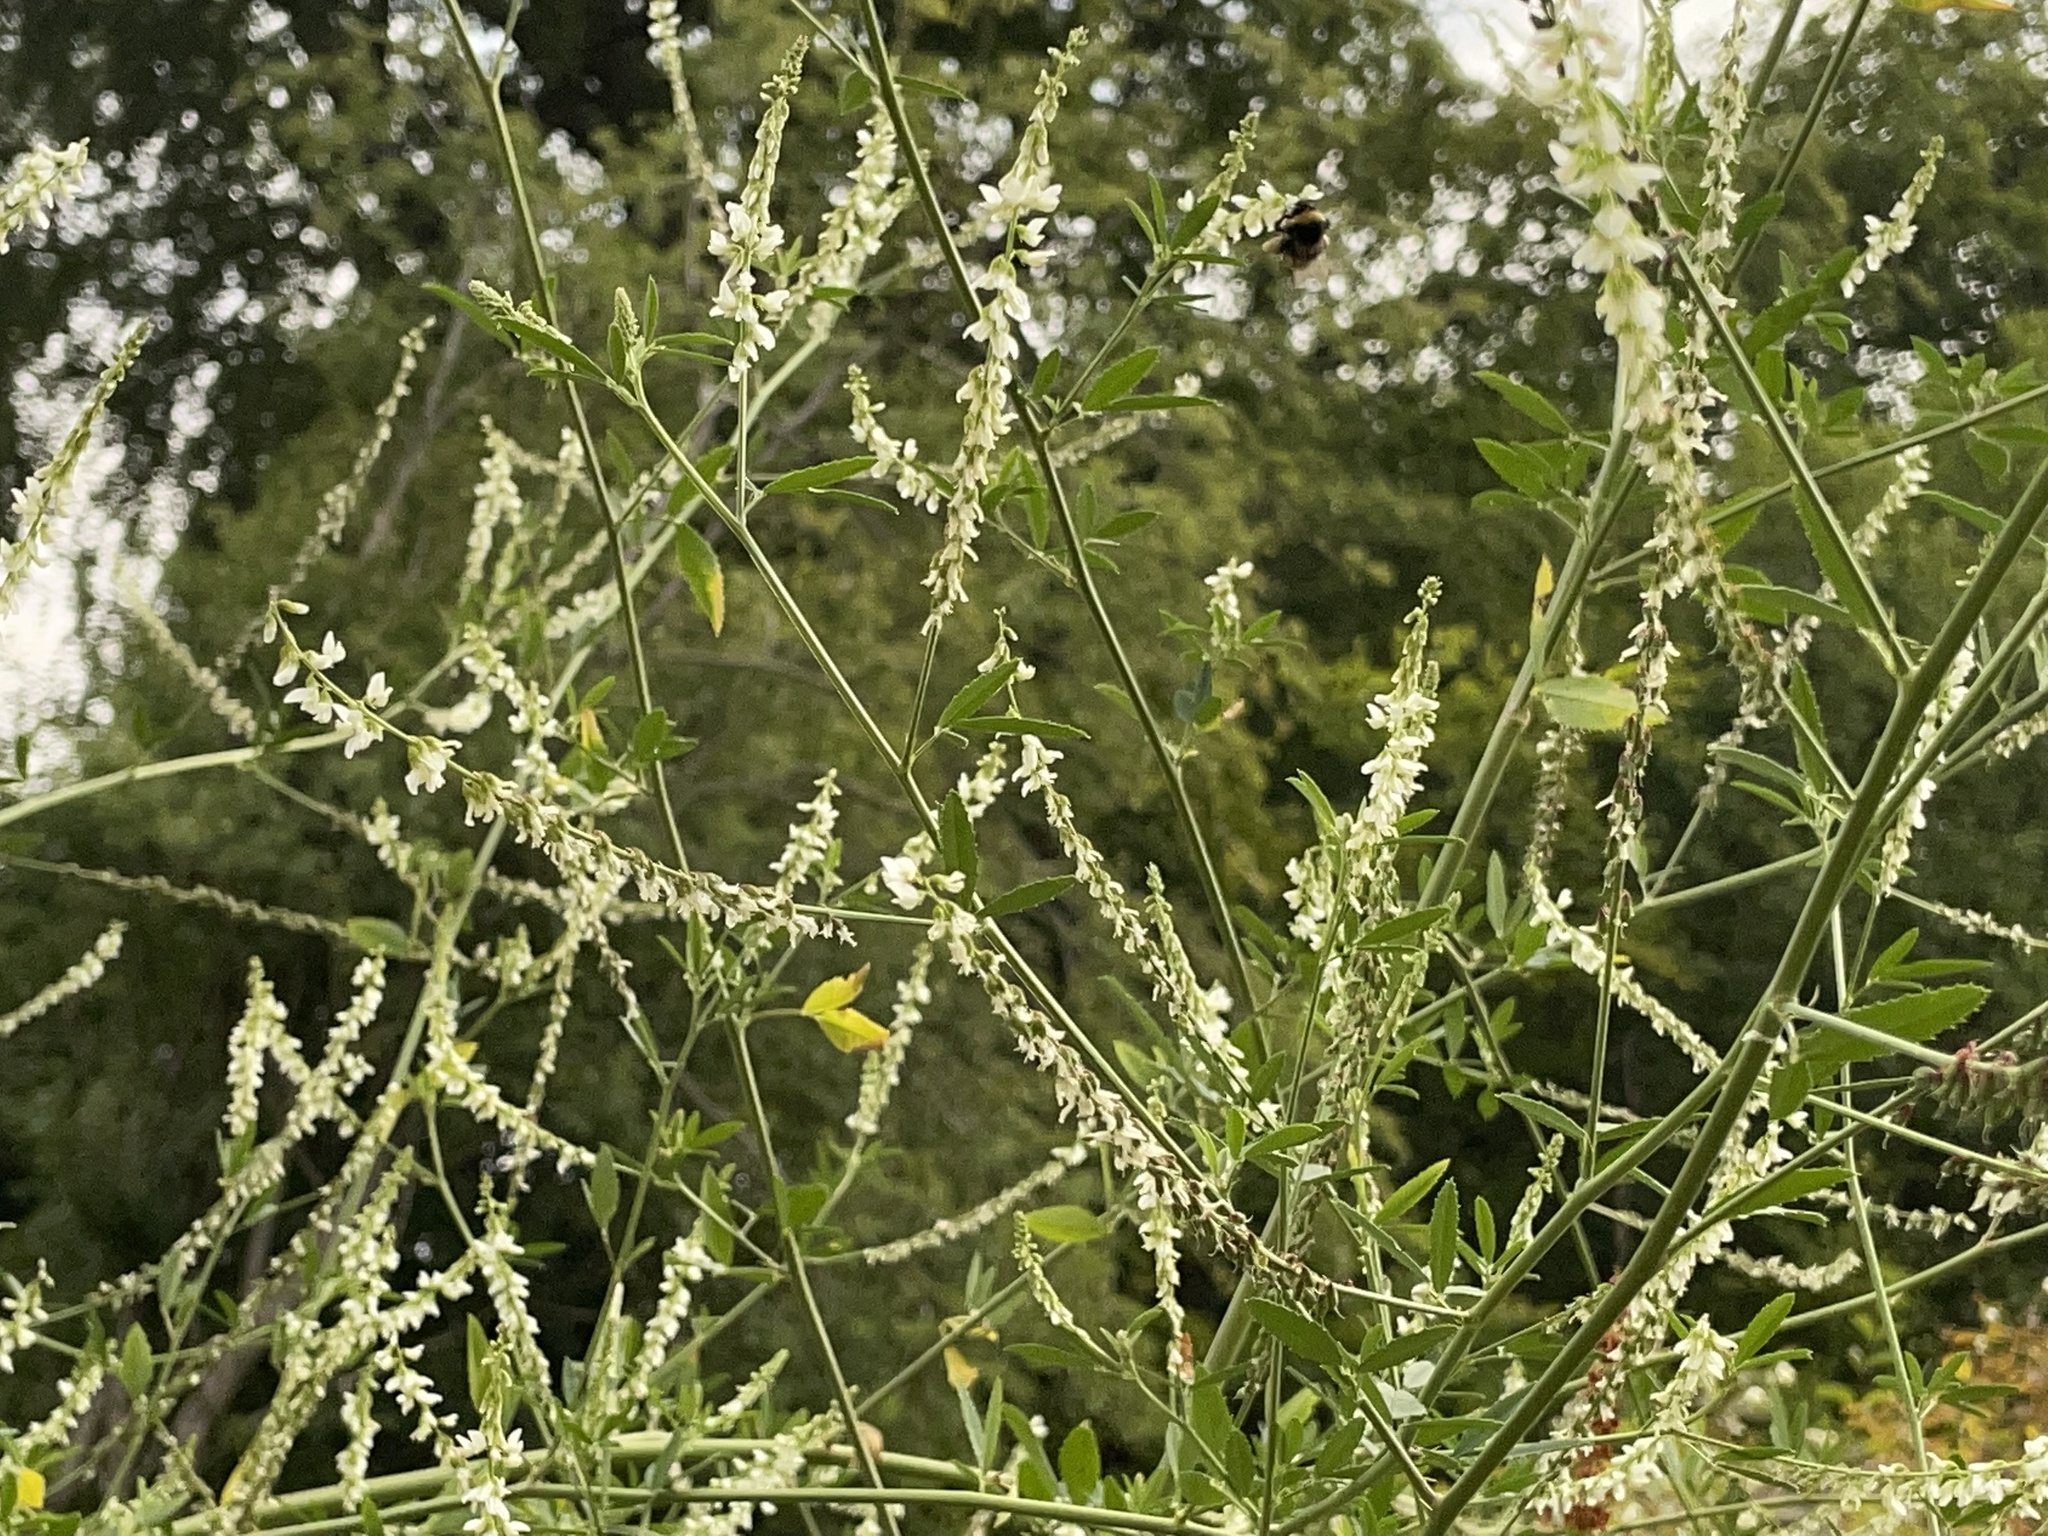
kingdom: Plantae
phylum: Tracheophyta
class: Magnoliopsida
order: Fabales
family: Fabaceae
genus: Melilotus
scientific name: Melilotus albus
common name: White melilot
